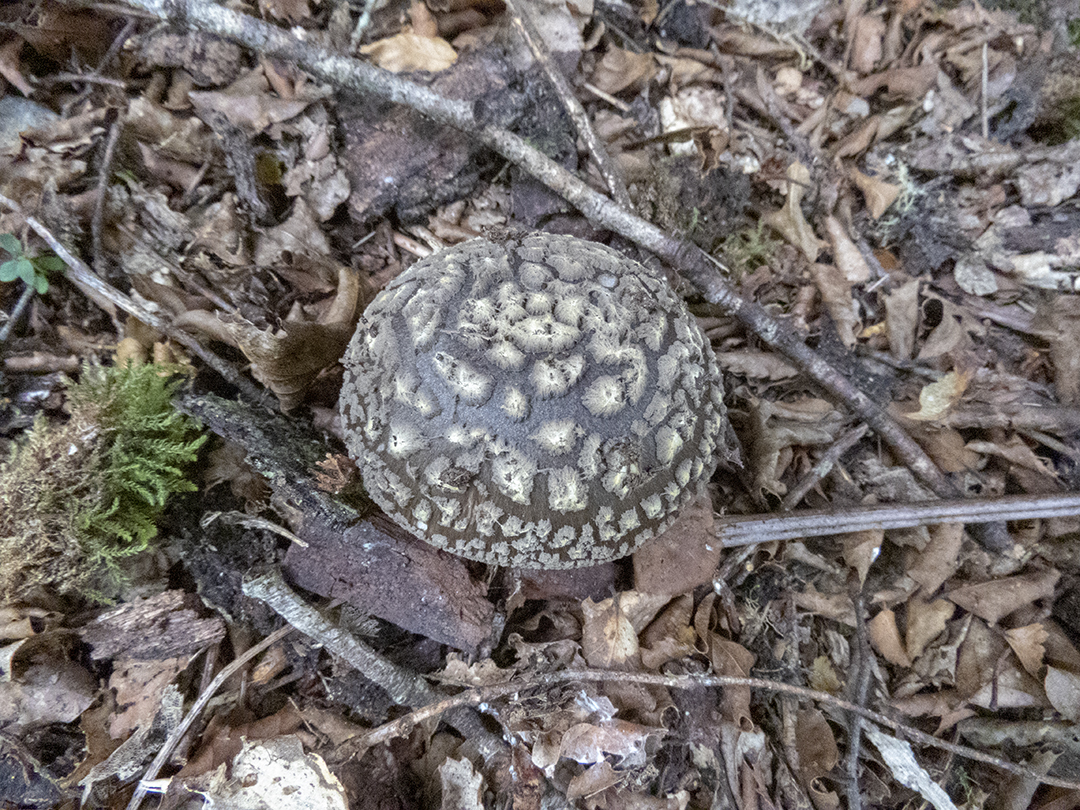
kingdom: Fungi
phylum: Basidiomycota
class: Agaricomycetes
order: Agaricales
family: Amanitaceae
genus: Amanita
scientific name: Amanita nothofagi
